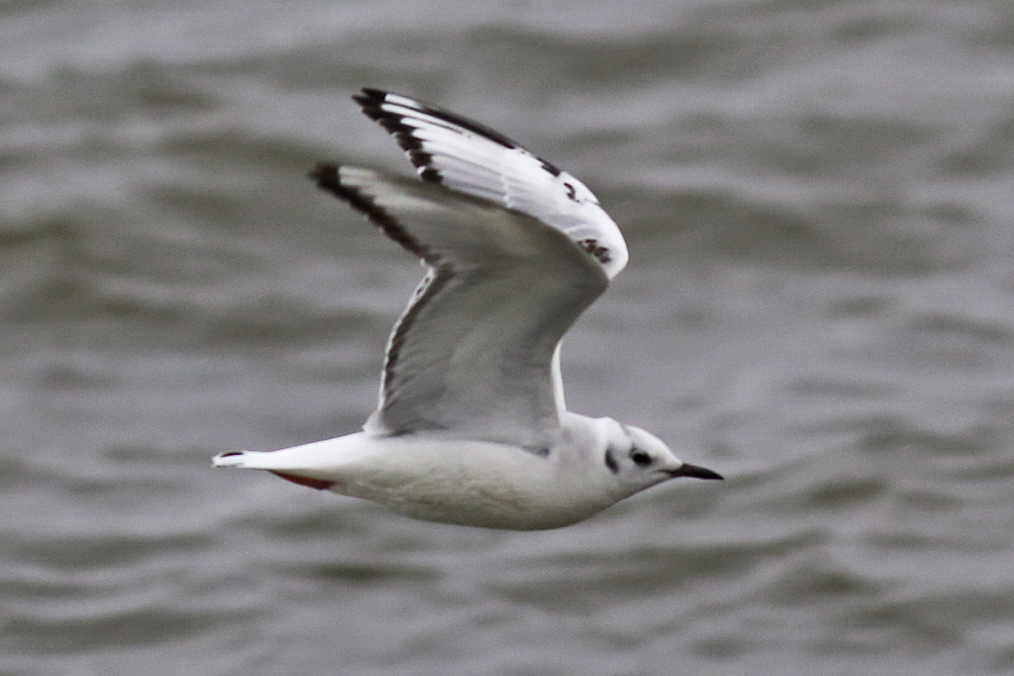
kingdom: Animalia
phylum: Chordata
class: Aves
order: Charadriiformes
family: Laridae
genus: Chroicocephalus
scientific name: Chroicocephalus philadelphia
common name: Bonaparte's gull
